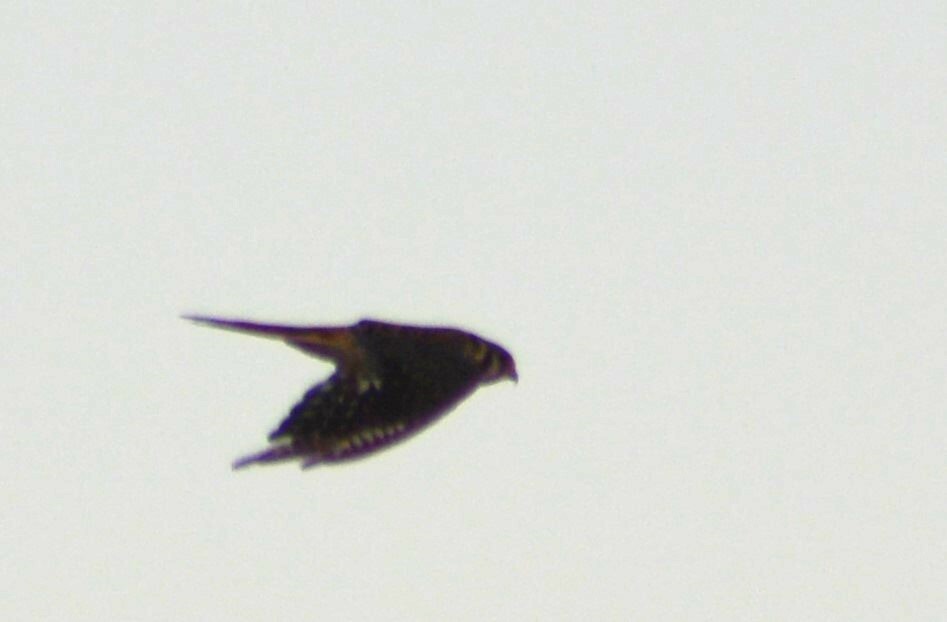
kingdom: Animalia
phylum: Chordata
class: Aves
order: Falconiformes
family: Falconidae
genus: Falco
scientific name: Falco sparverius
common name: American kestrel
